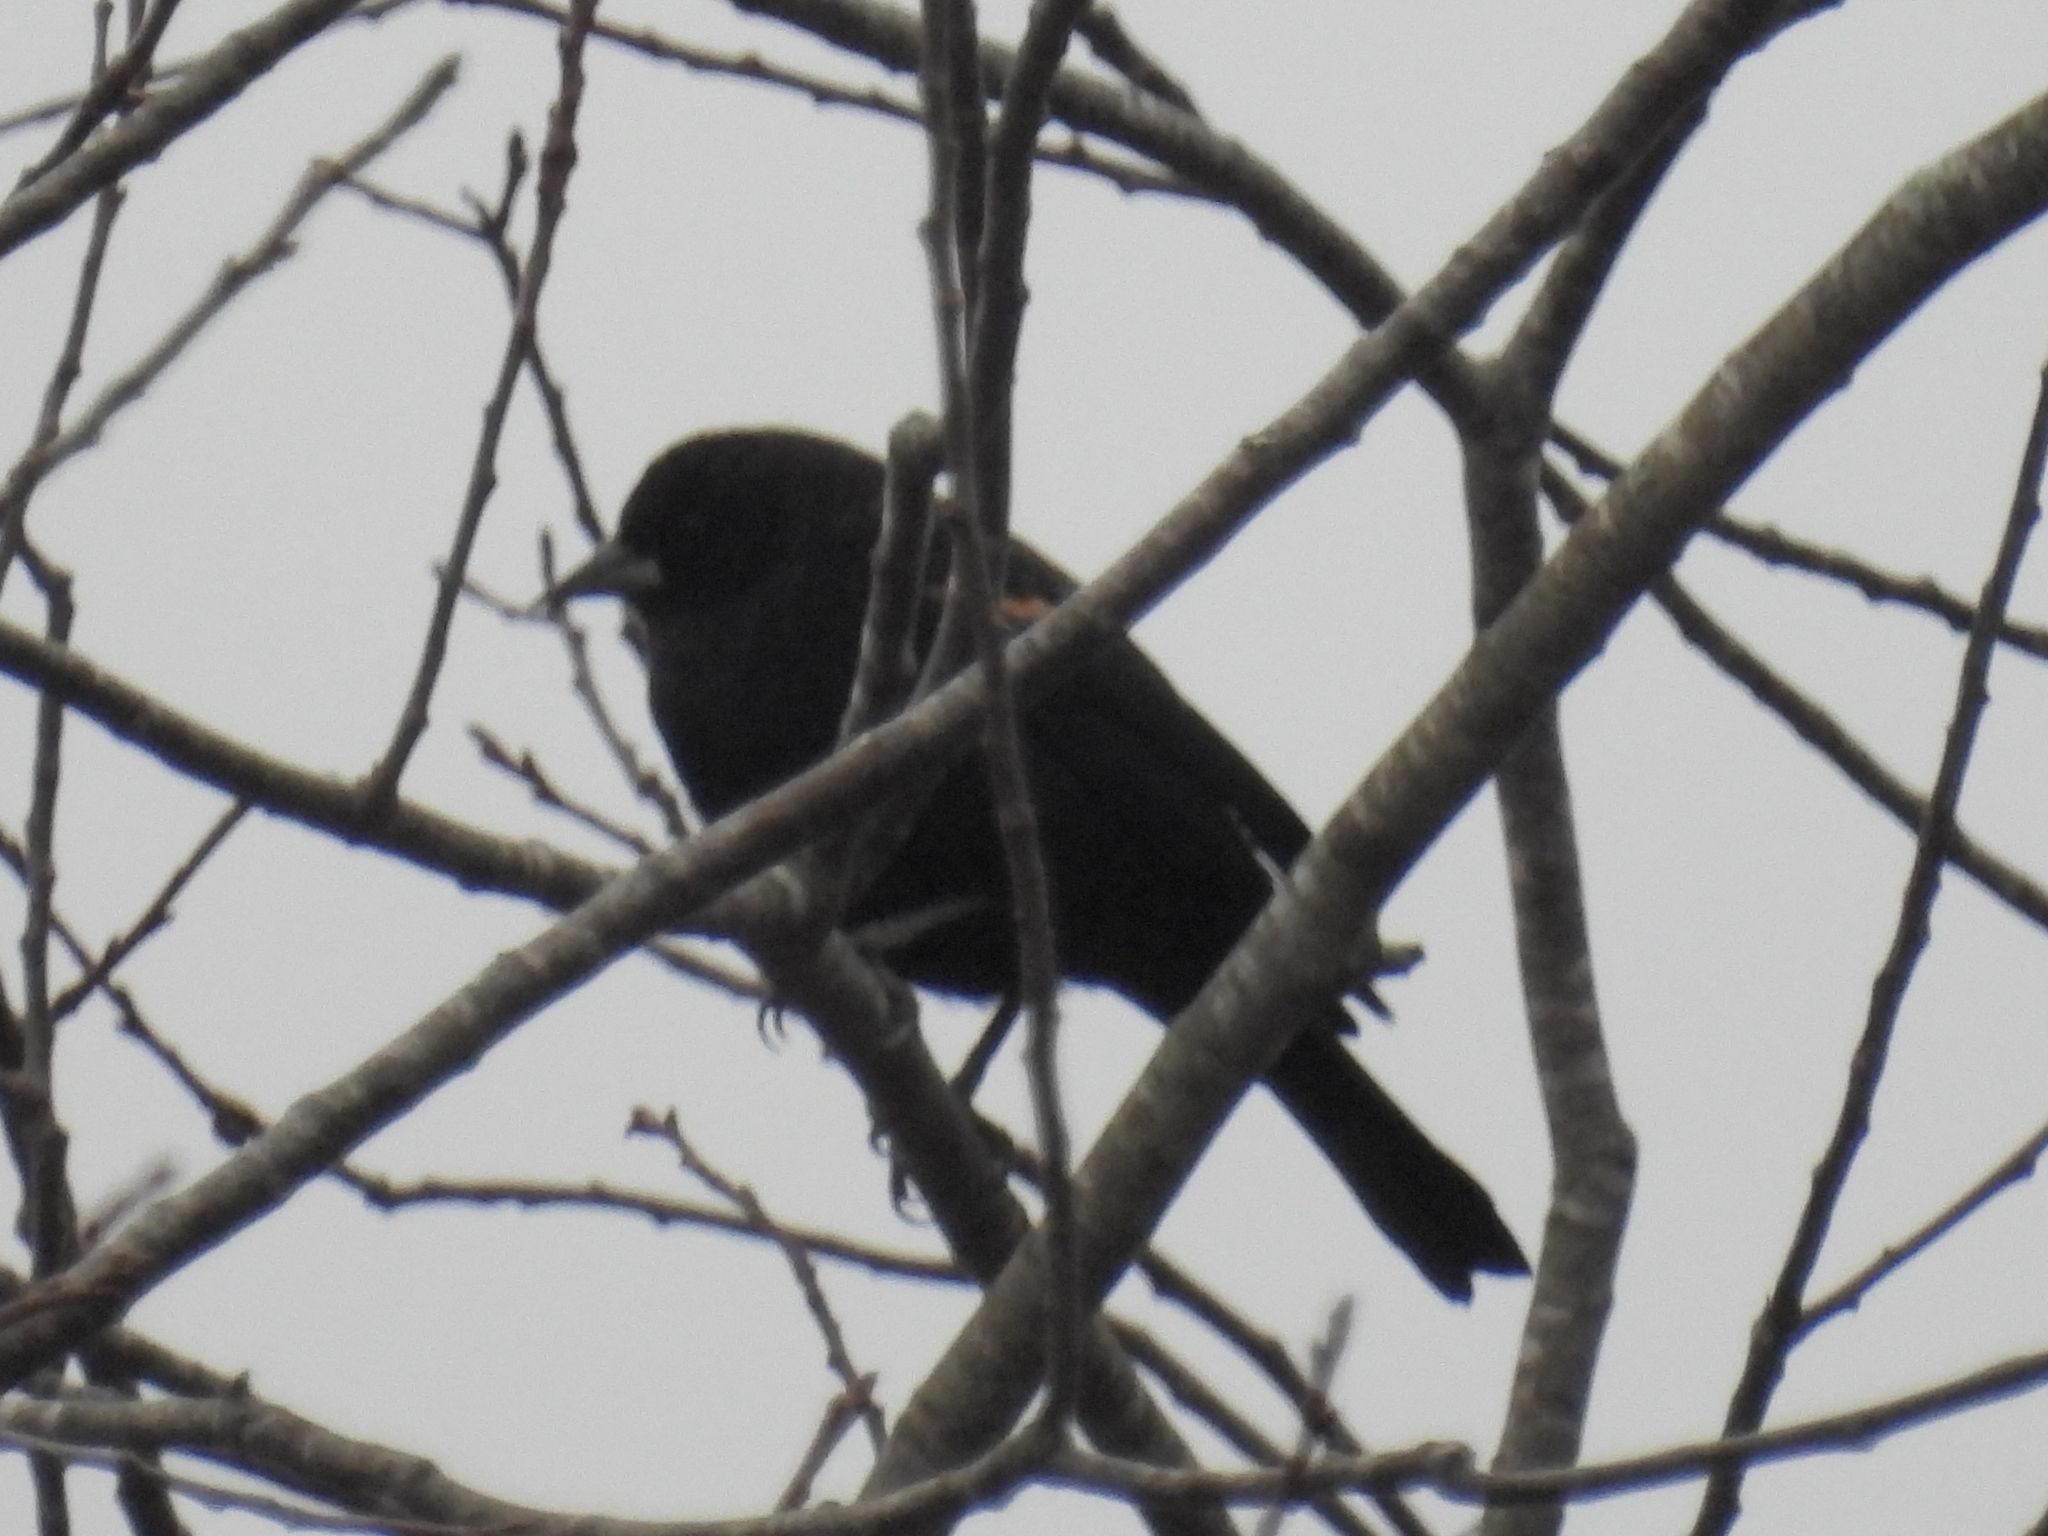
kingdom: Animalia
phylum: Chordata
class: Aves
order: Passeriformes
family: Icteridae
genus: Agelaius
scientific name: Agelaius phoeniceus
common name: Red-winged blackbird
